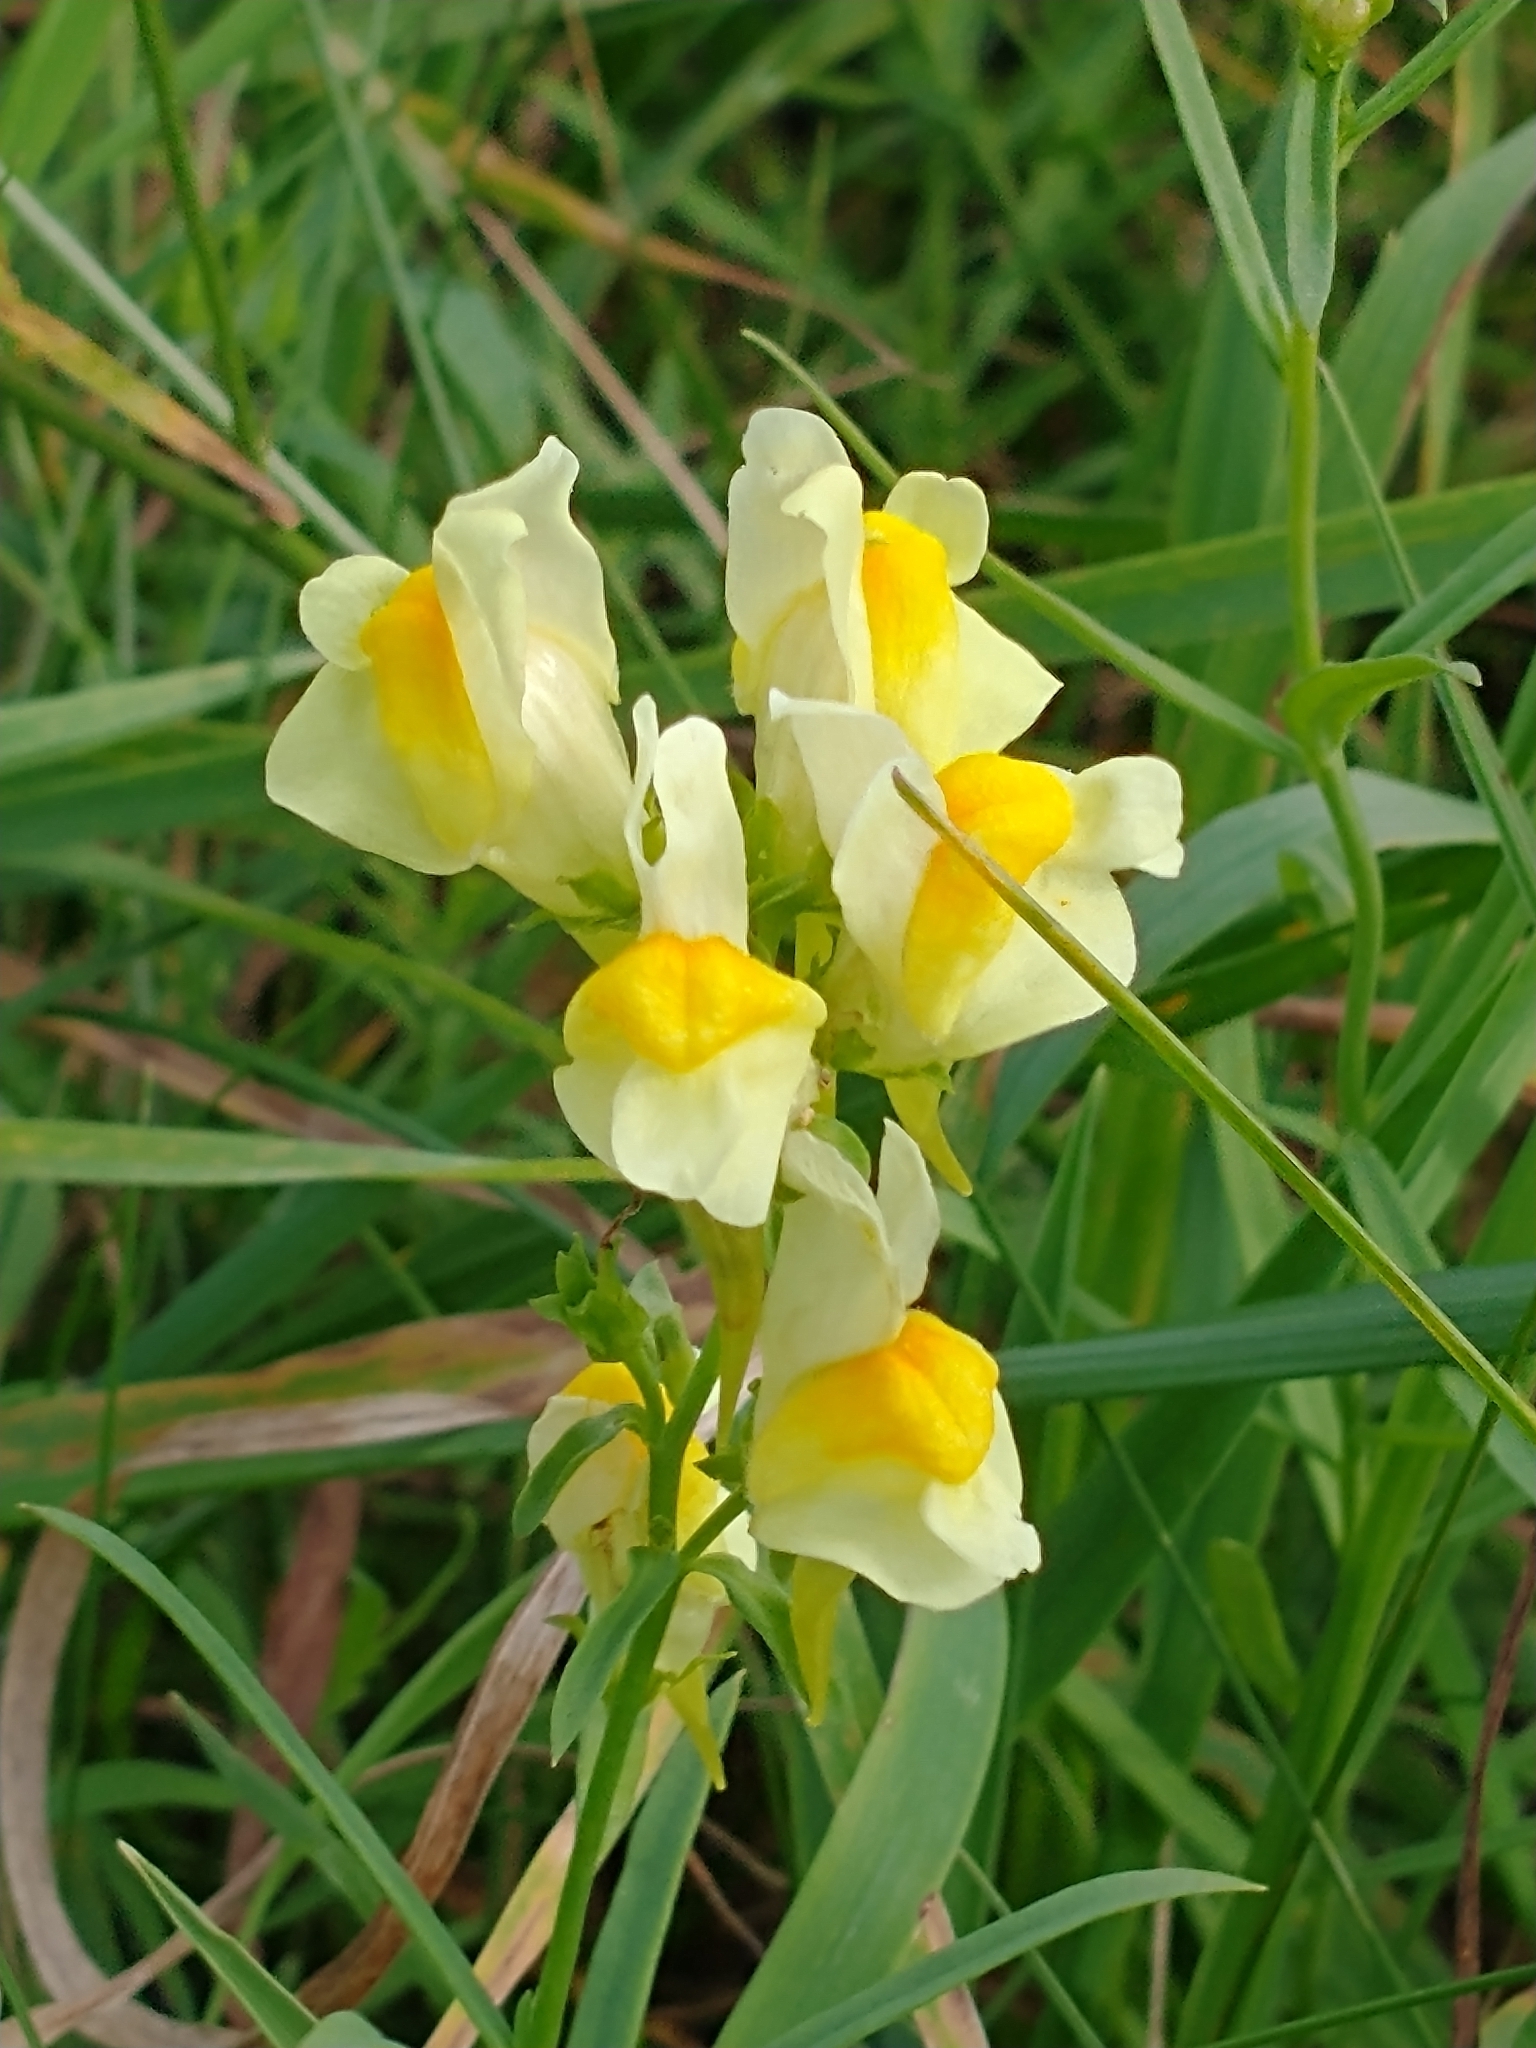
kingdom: Plantae
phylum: Tracheophyta
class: Magnoliopsida
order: Lamiales
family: Plantaginaceae
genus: Linaria
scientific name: Linaria vulgaris
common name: Butter and eggs
